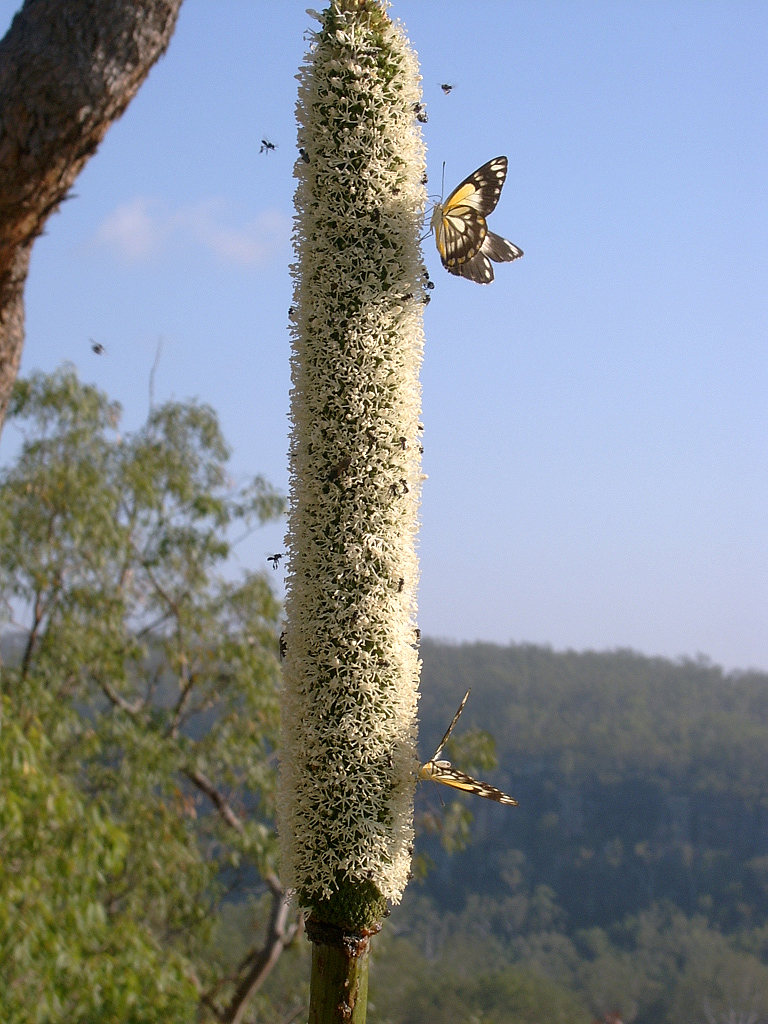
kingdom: Animalia
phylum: Arthropoda
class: Insecta
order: Lepidoptera
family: Pieridae
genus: Belenois
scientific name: Belenois java
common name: Caper white
